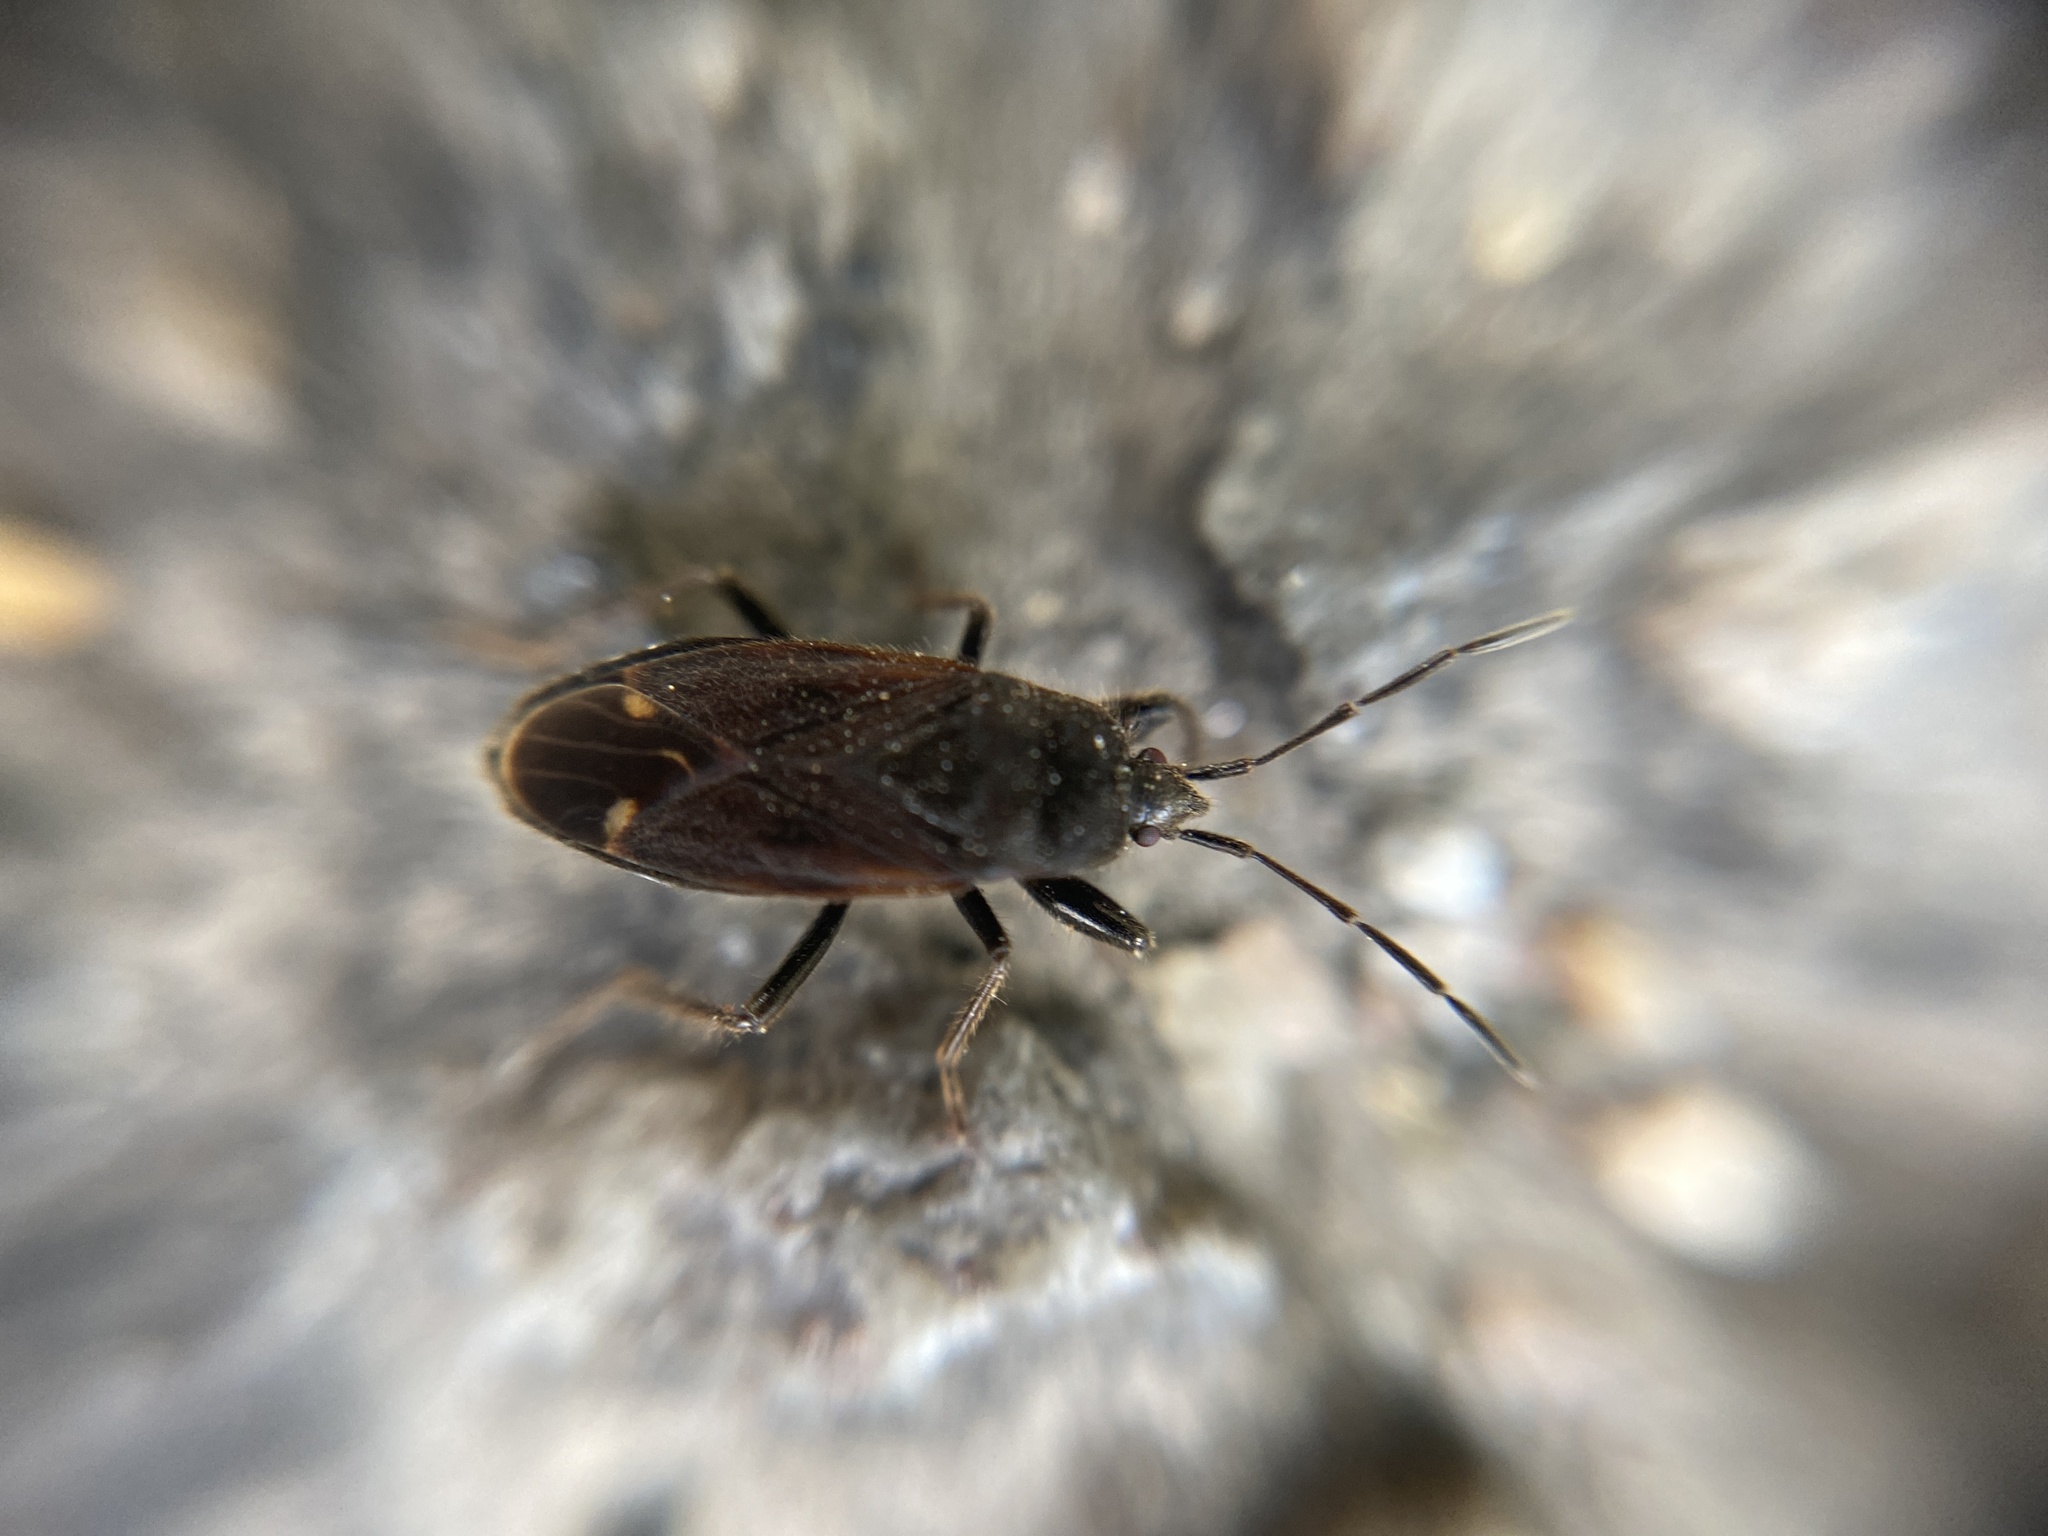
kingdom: Animalia
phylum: Arthropoda
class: Insecta
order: Hemiptera
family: Rhyparochromidae
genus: Eremocoris
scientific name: Eremocoris plebejus
